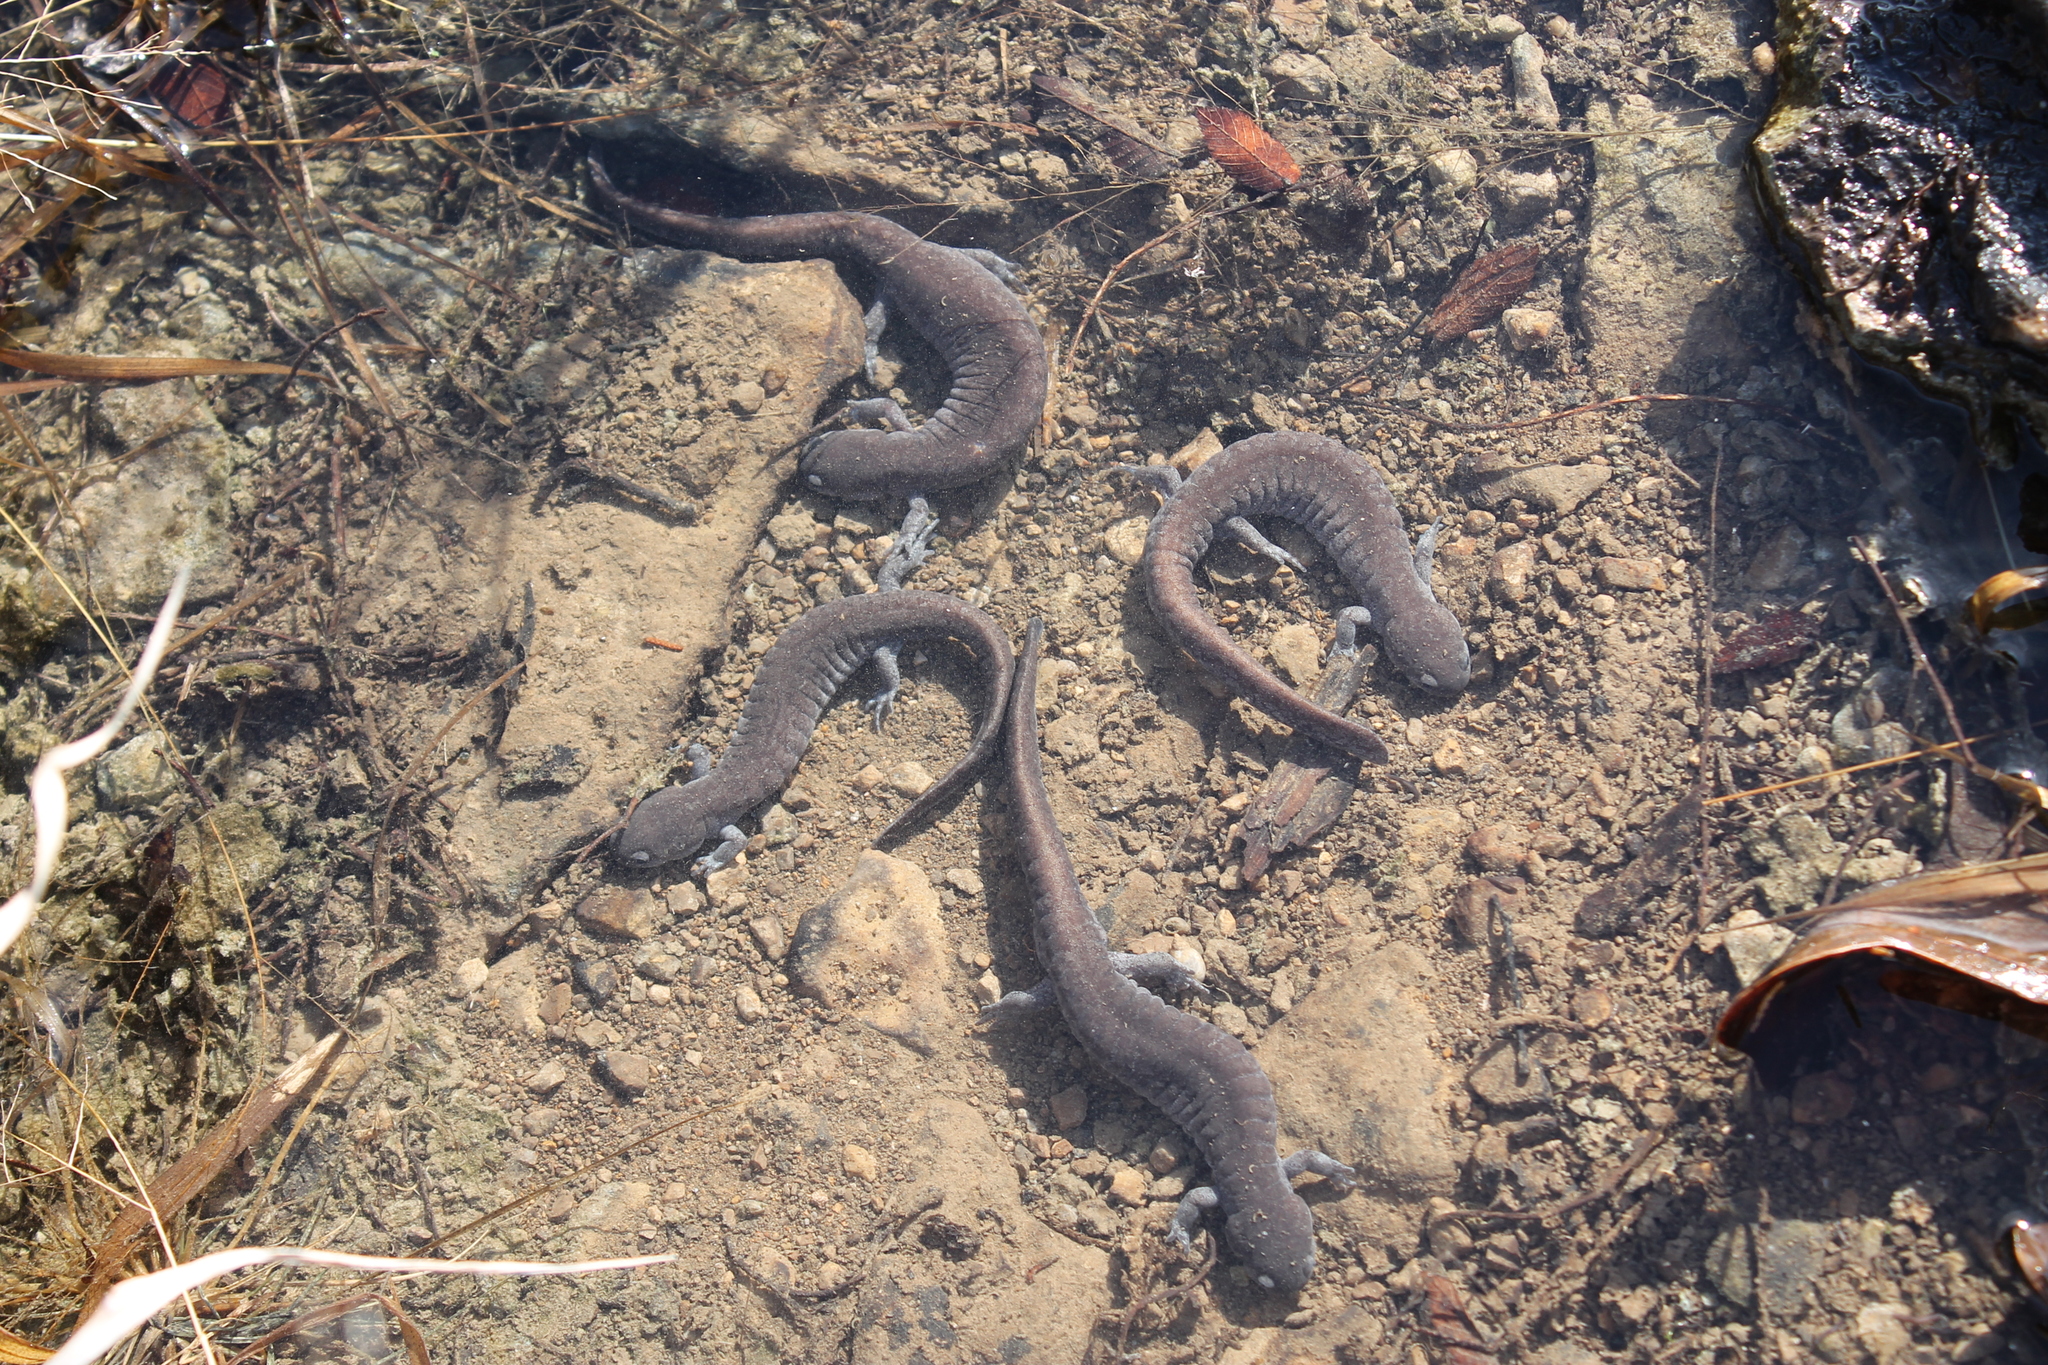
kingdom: Animalia
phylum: Chordata
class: Amphibia
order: Caudata
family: Ambystomatidae
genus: Ambystoma
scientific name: Ambystoma barbouri
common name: Streamside salamander
